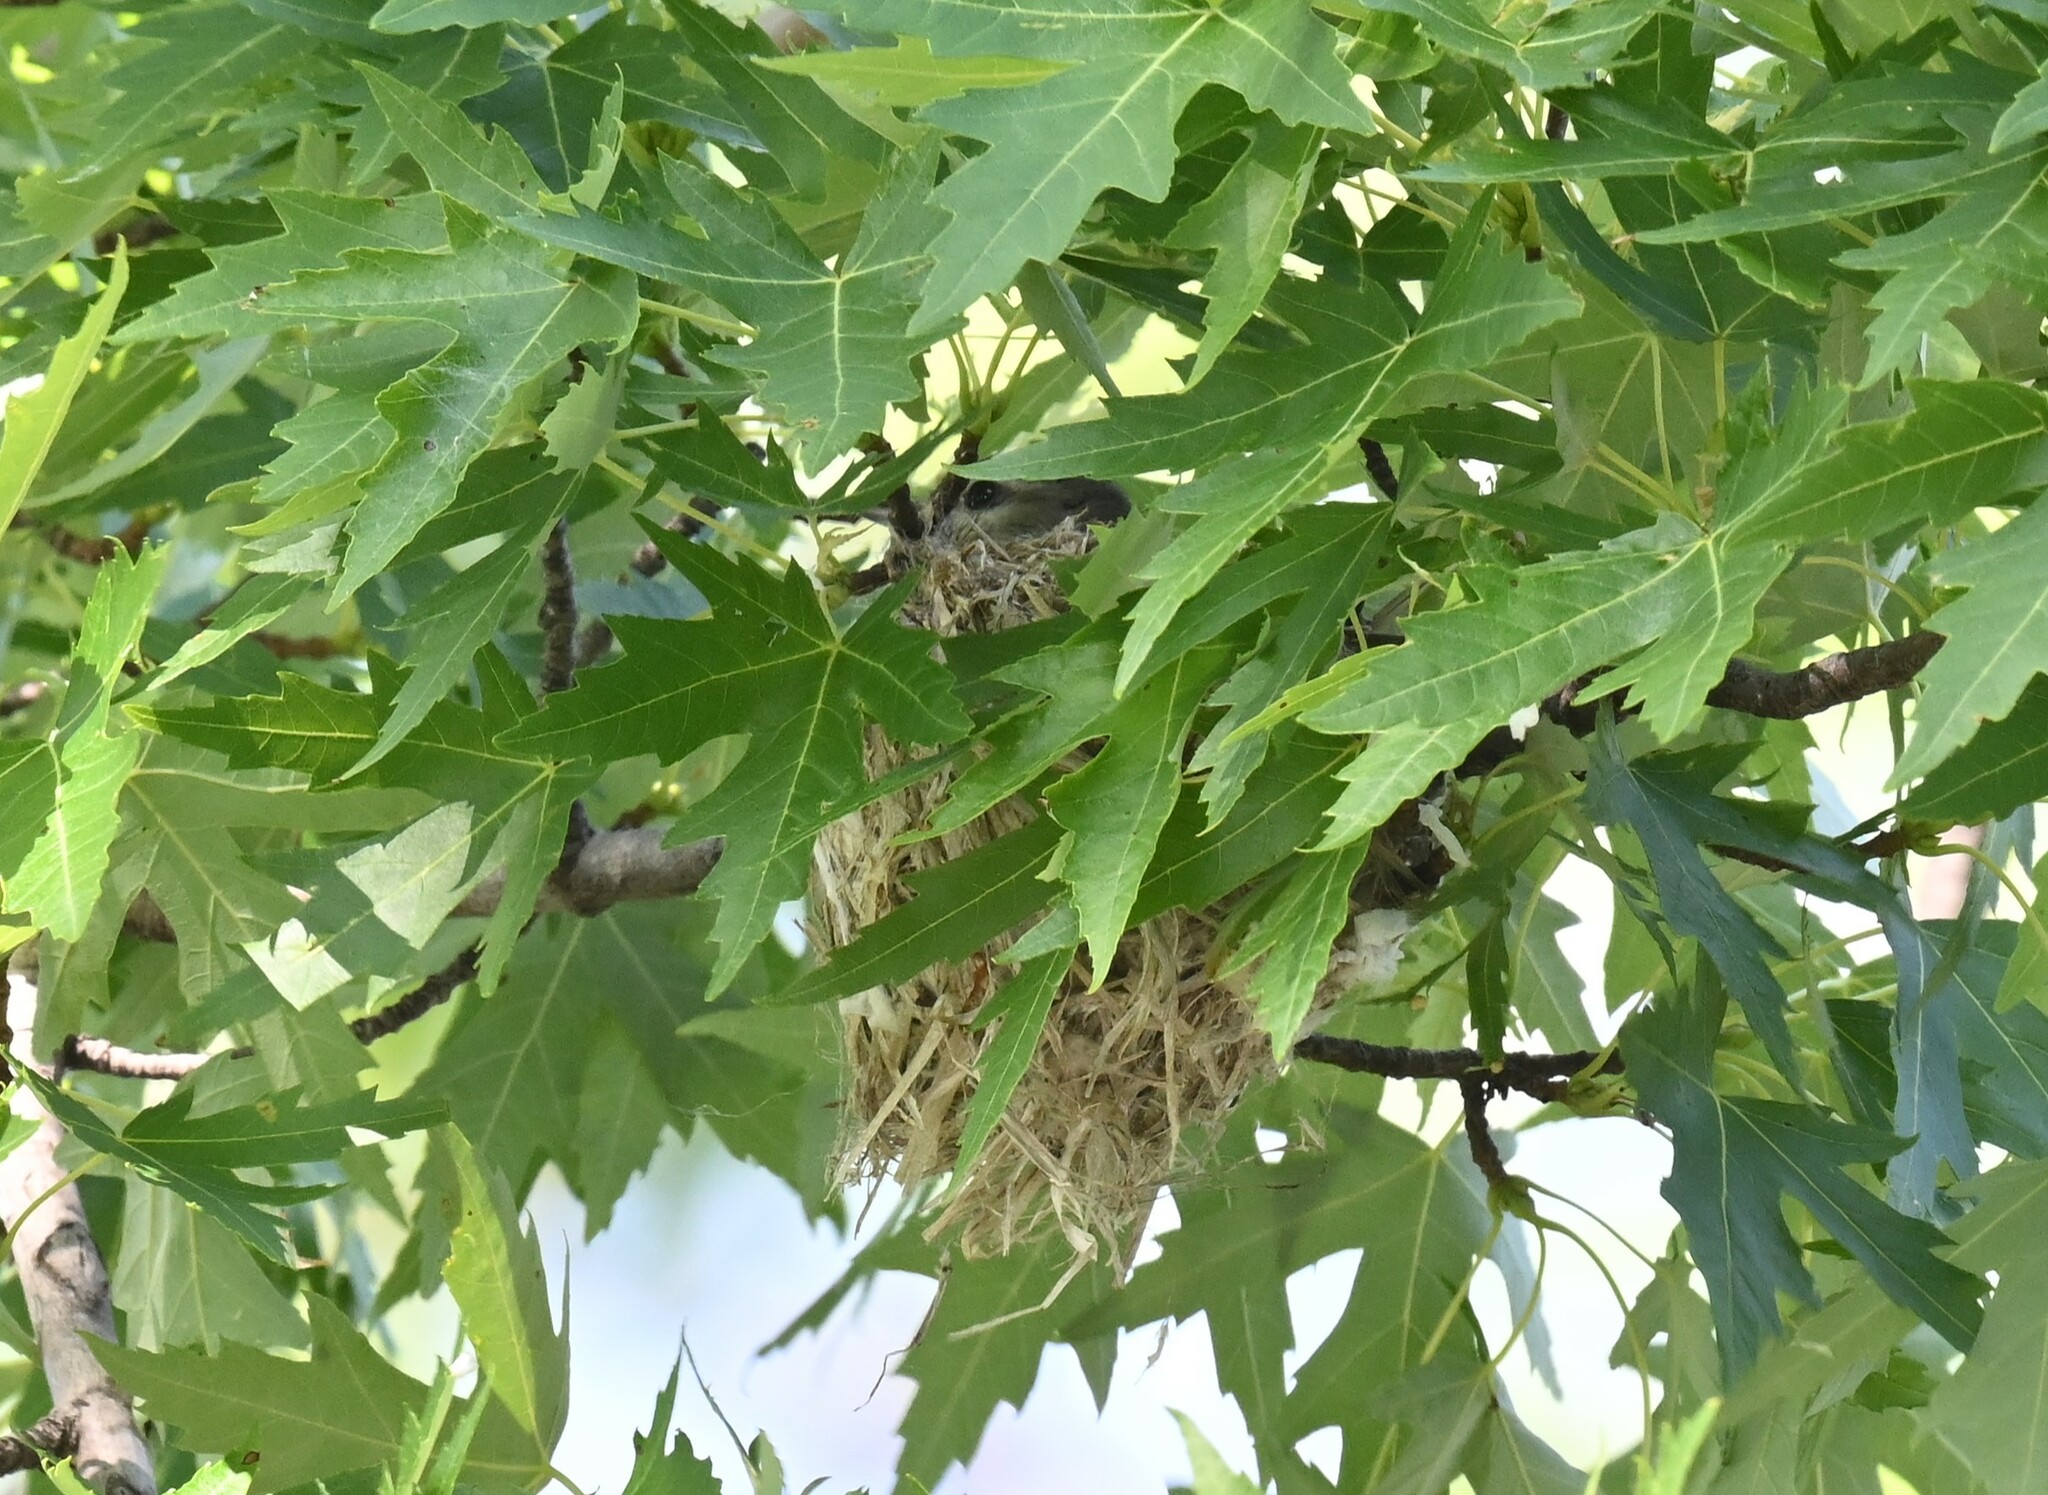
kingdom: Animalia
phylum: Chordata
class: Aves
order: Passeriformes
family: Vireonidae
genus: Vireo
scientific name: Vireo gilvus
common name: Warbling vireo
